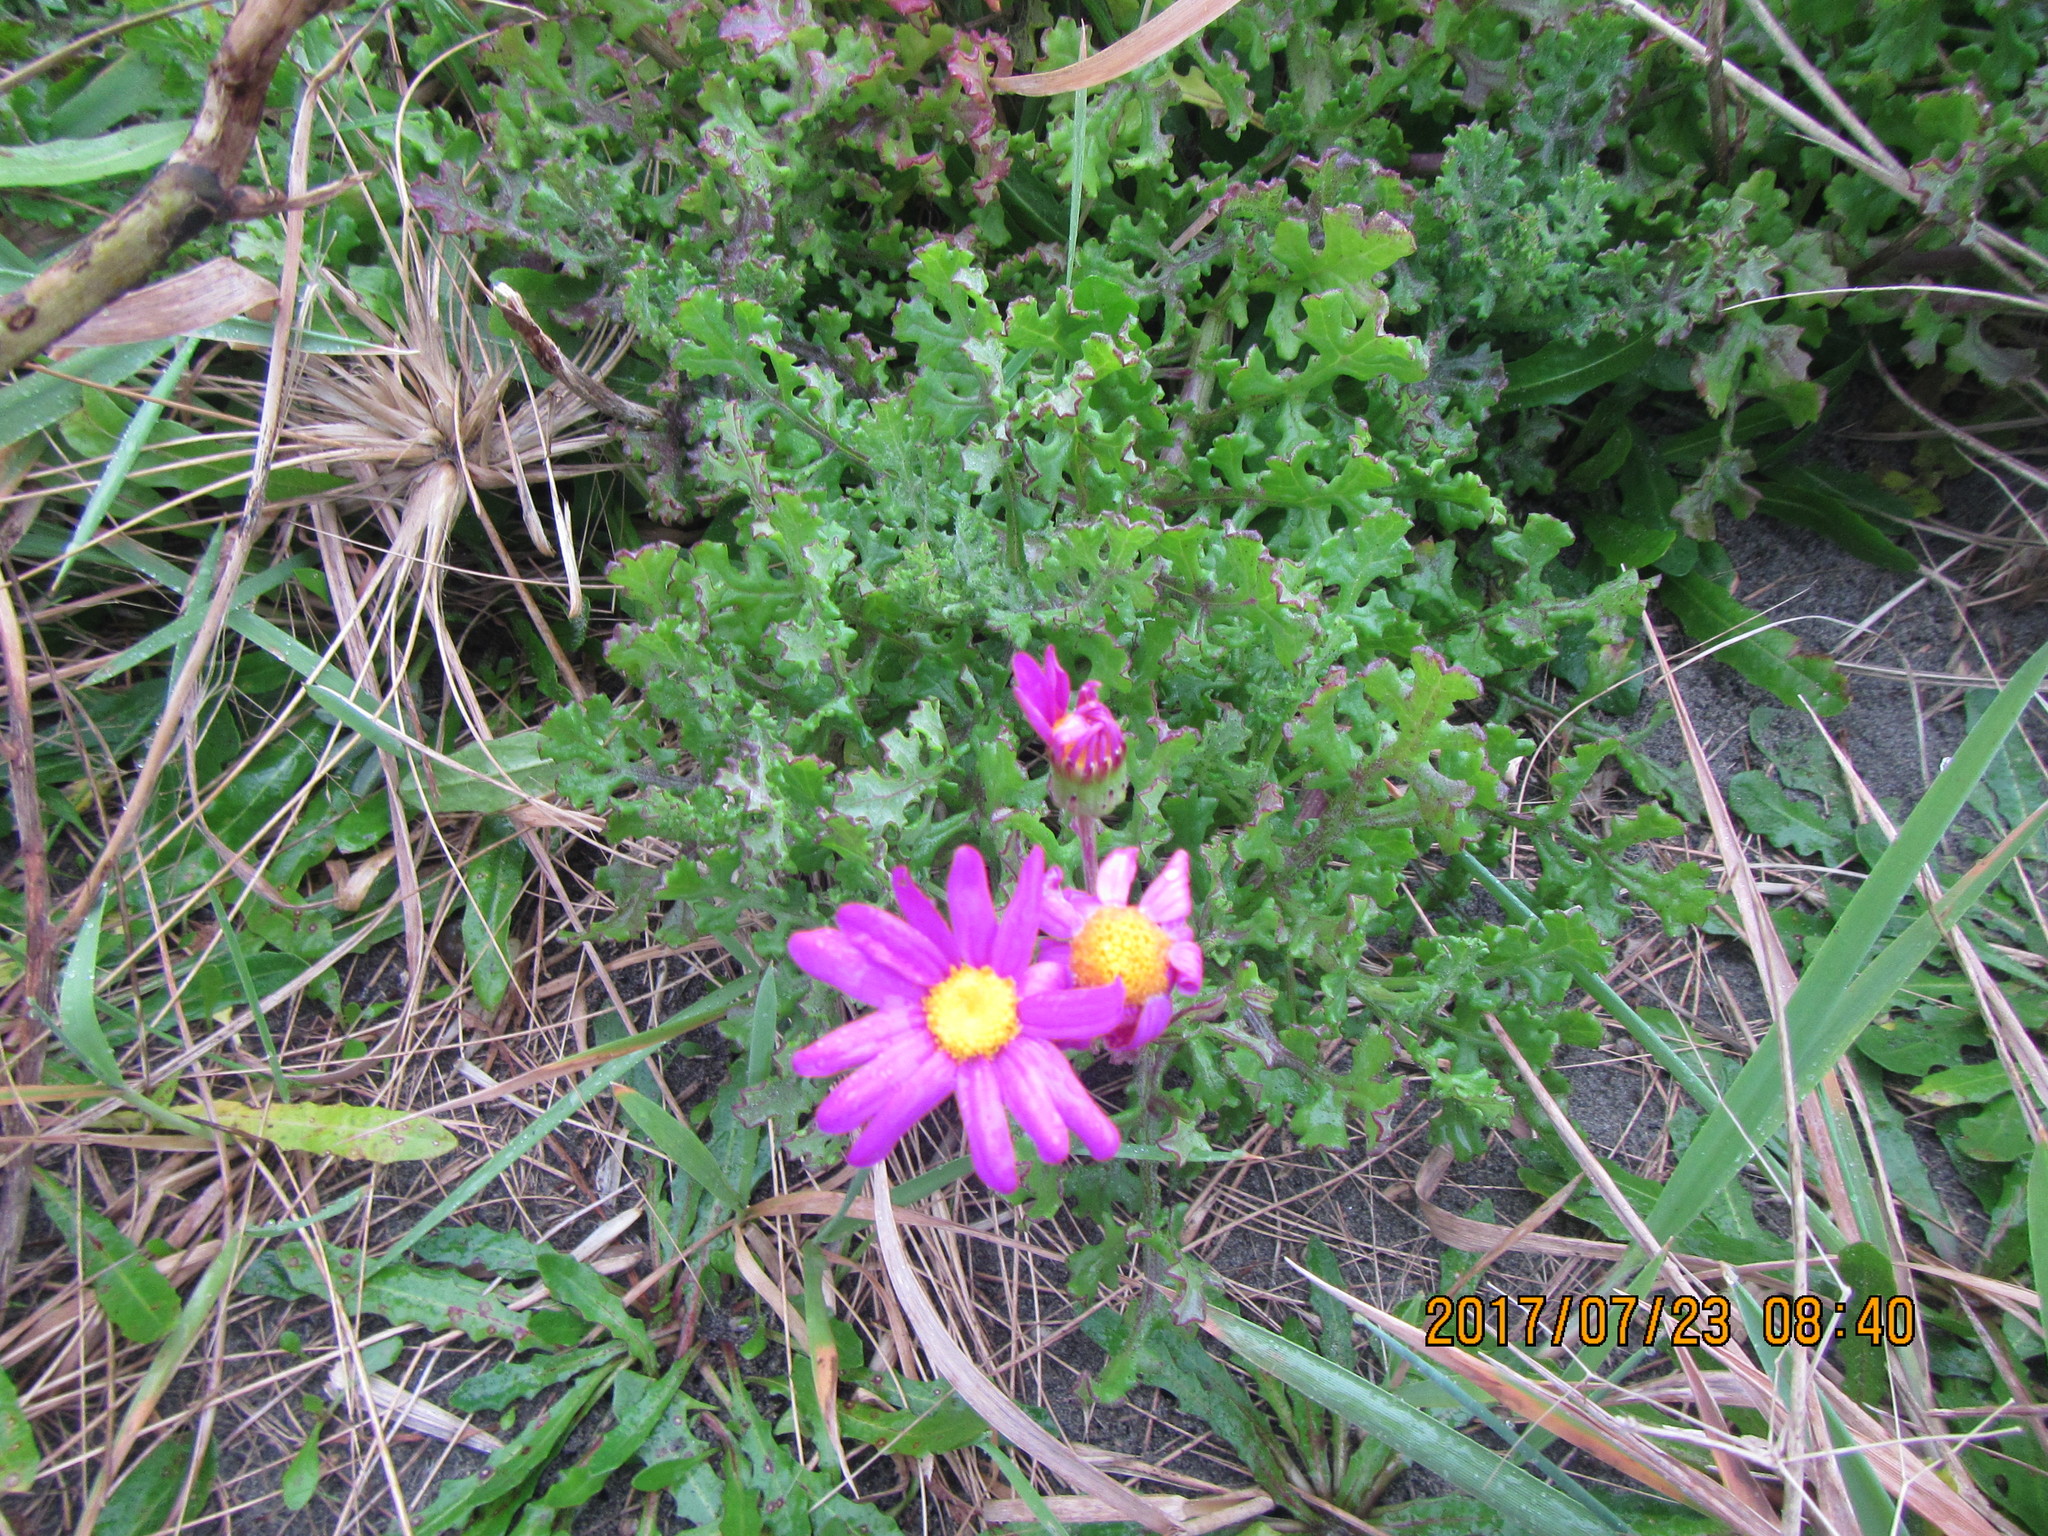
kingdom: Plantae
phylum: Tracheophyta
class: Magnoliopsida
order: Asterales
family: Asteraceae
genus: Senecio
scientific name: Senecio elegans
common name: Purple groundsel
